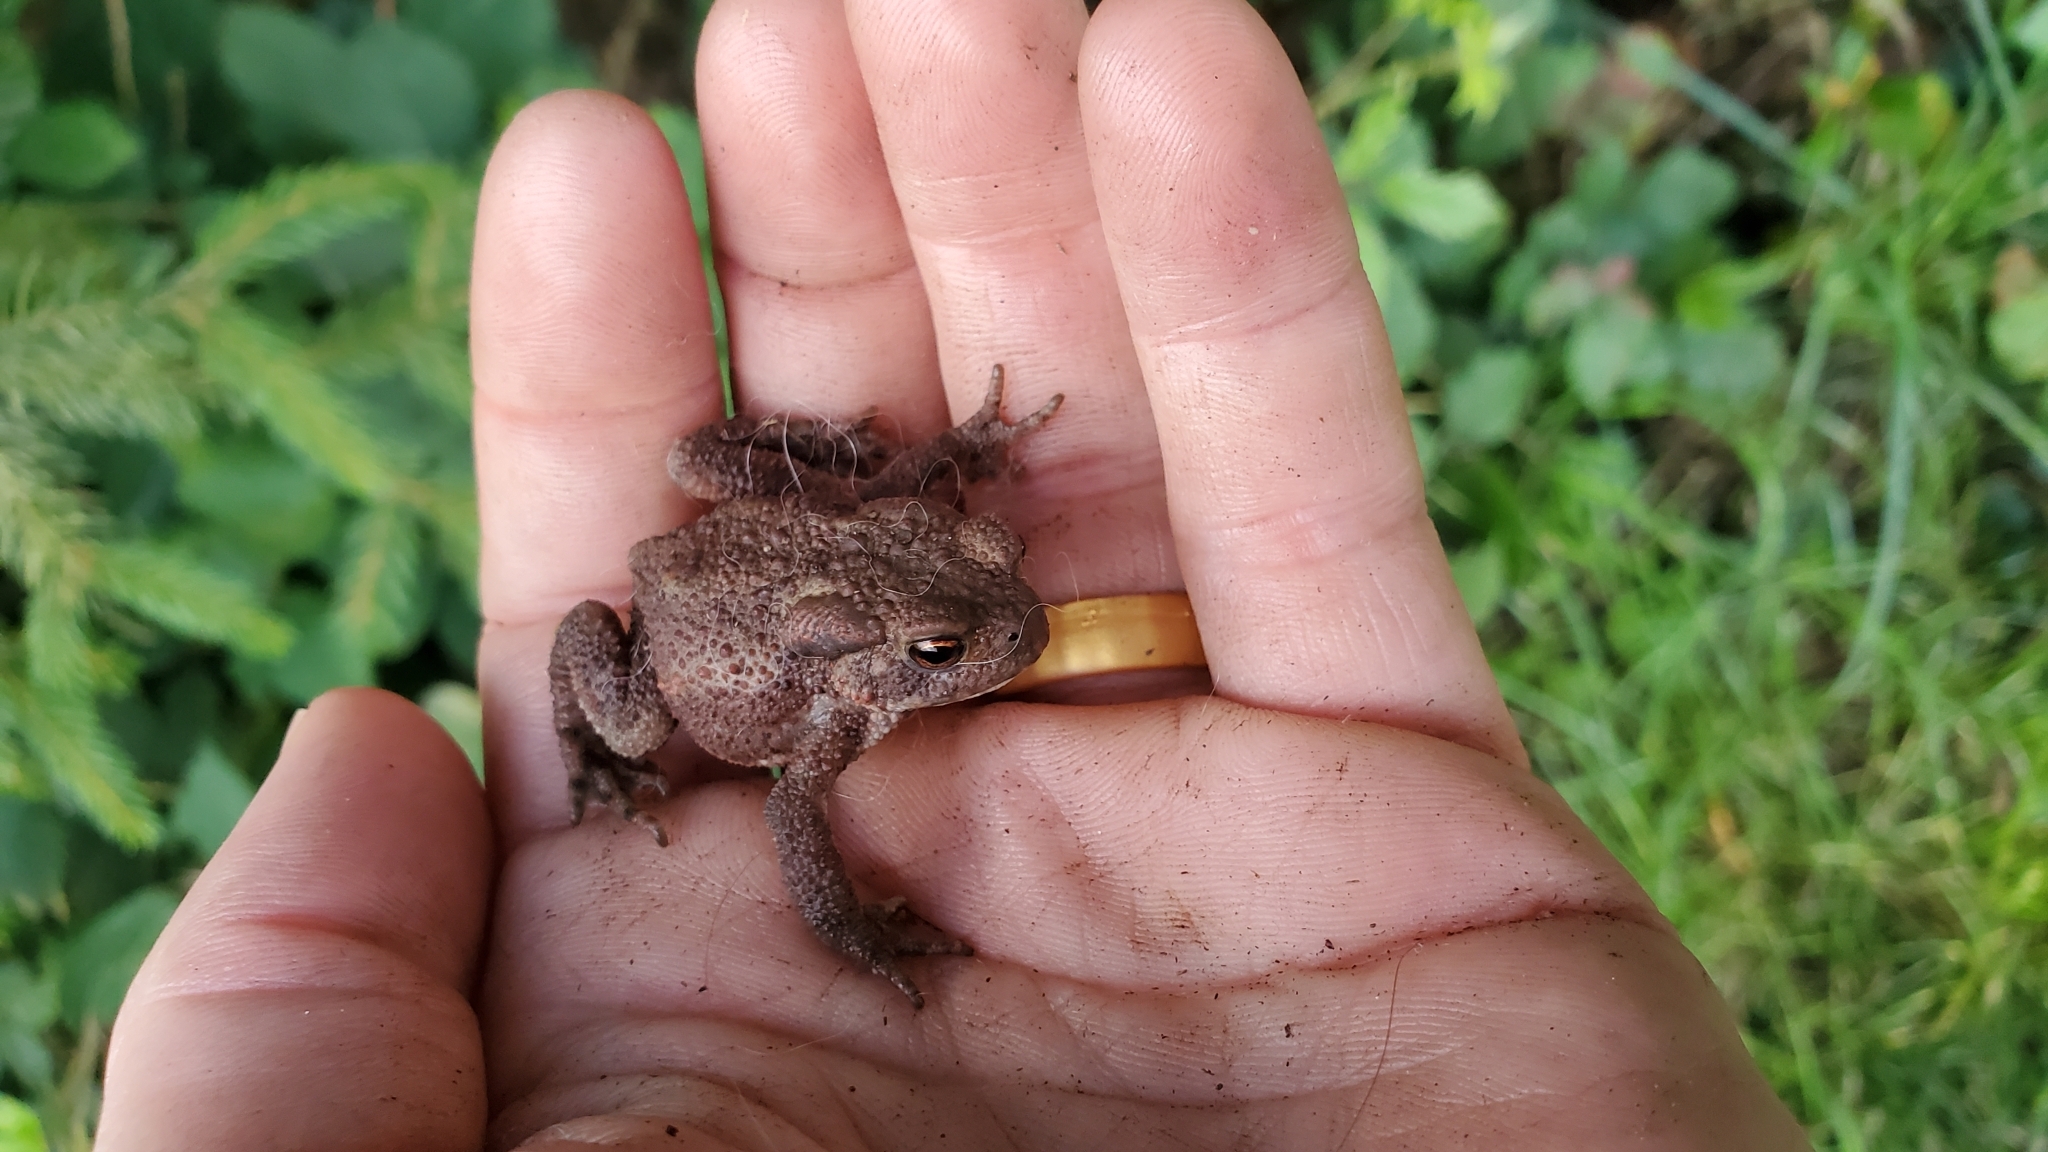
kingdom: Animalia
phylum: Chordata
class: Amphibia
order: Anura
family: Bufonidae
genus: Bufo
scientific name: Bufo bufo
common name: Common toad
